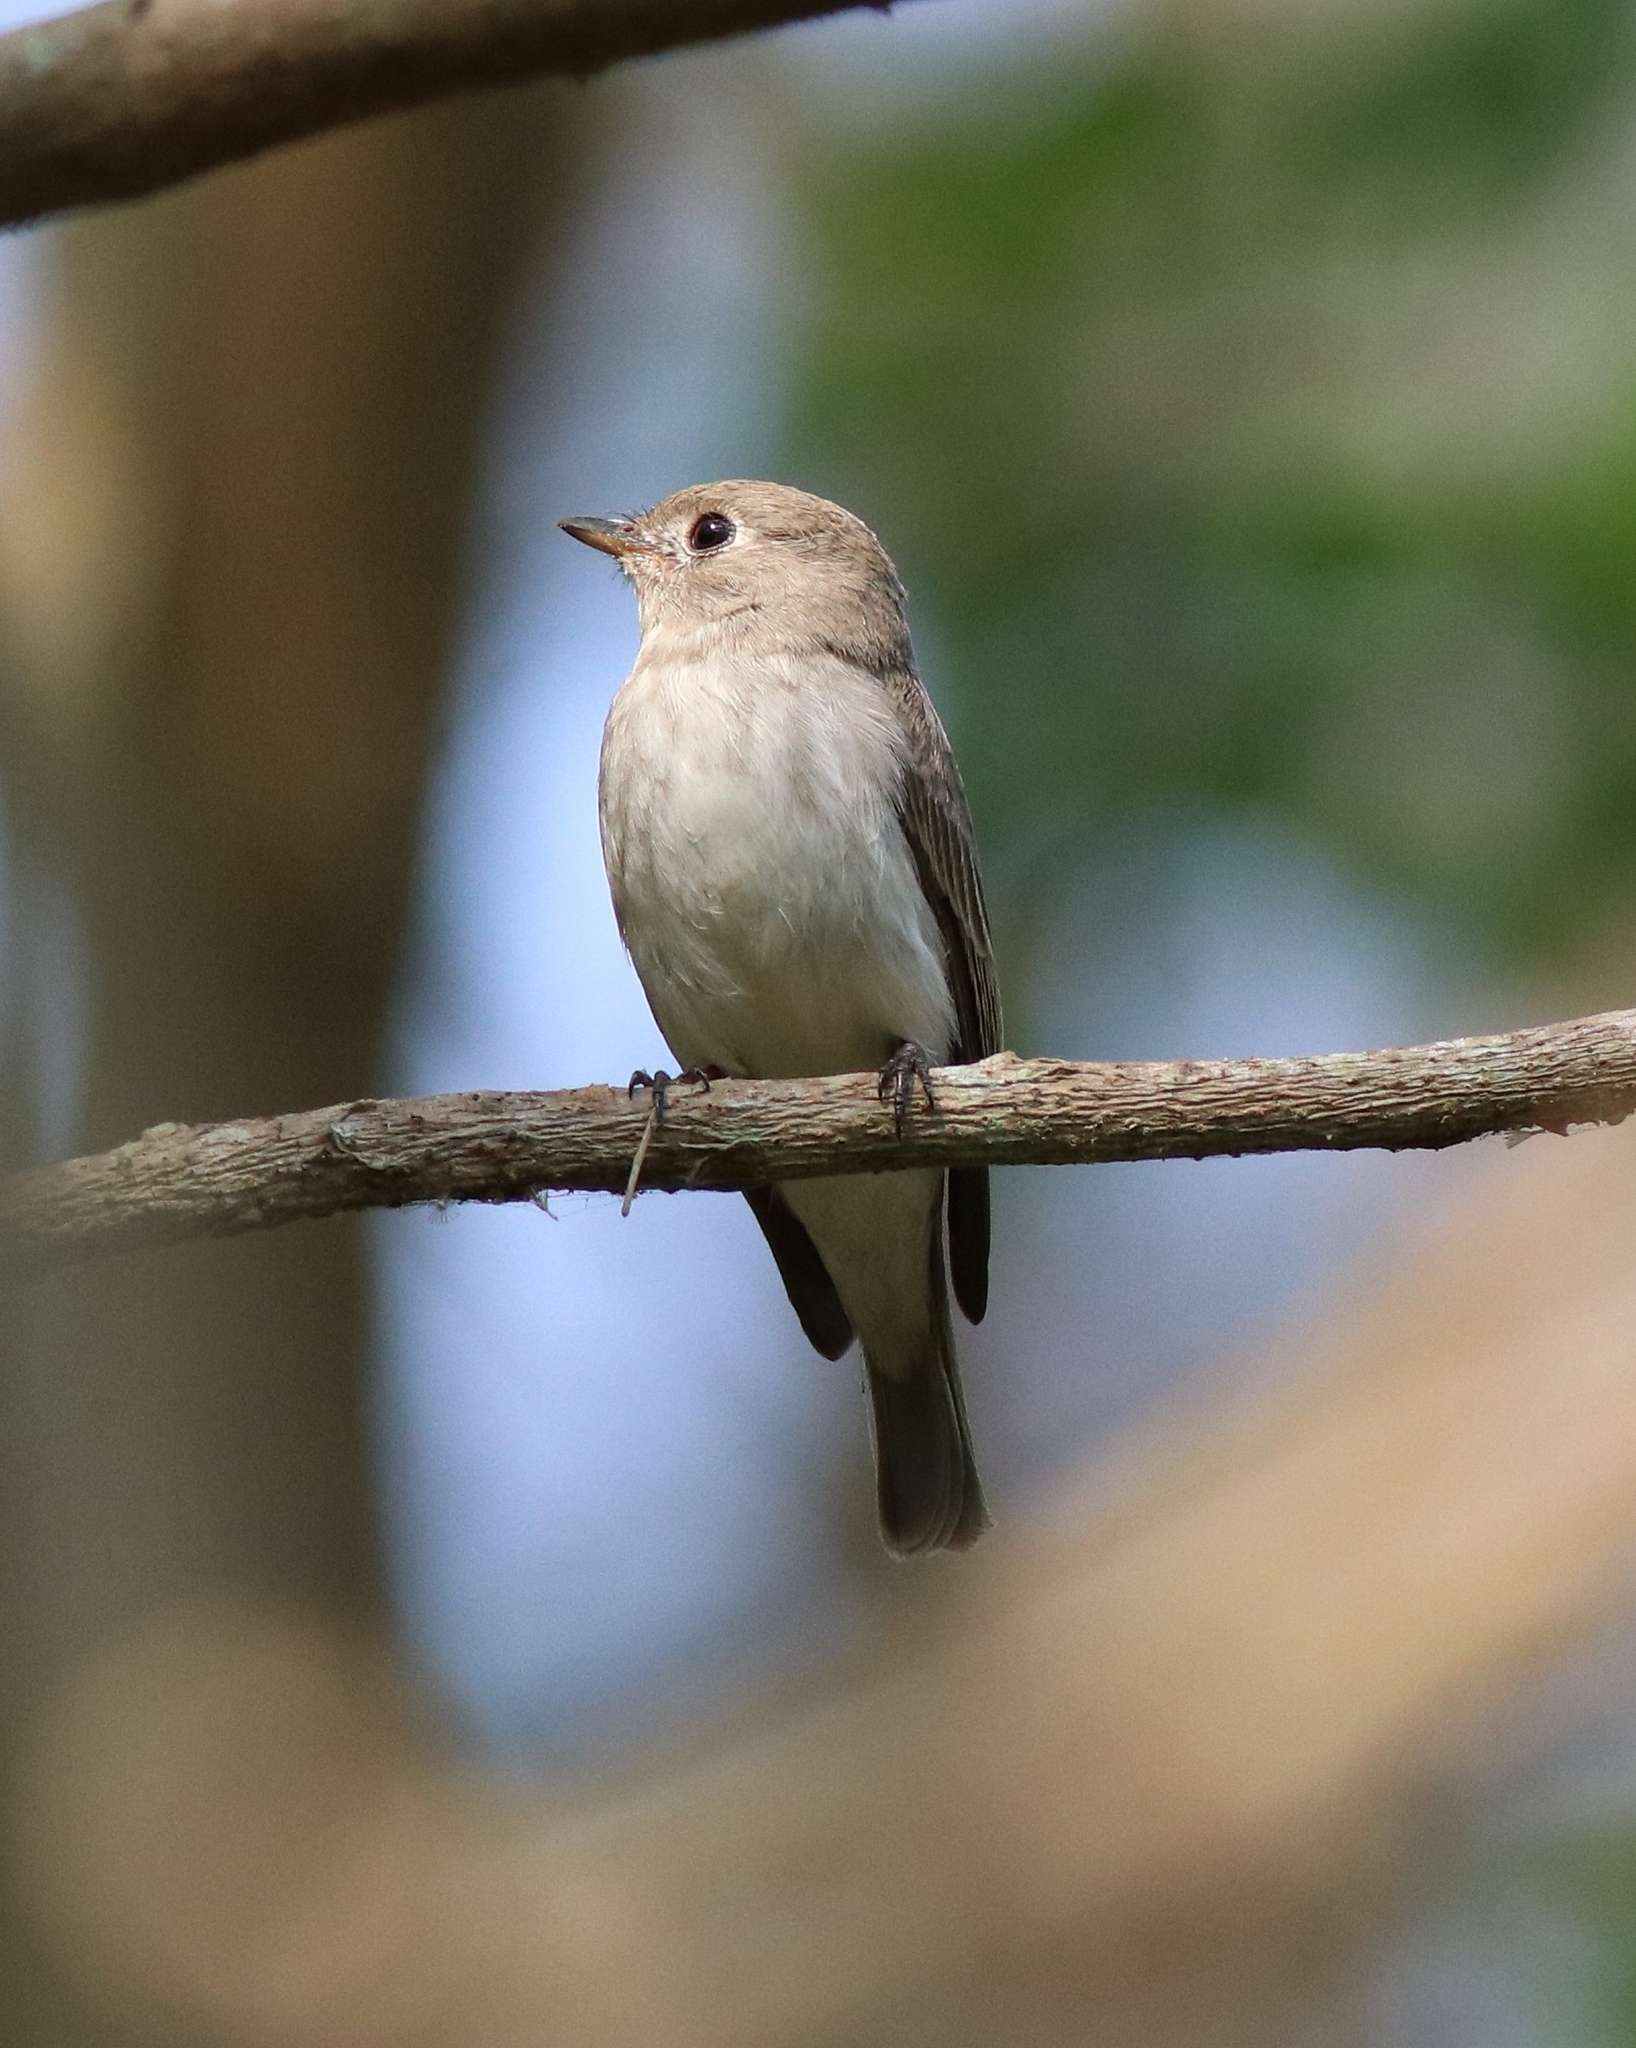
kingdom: Animalia
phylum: Chordata
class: Aves
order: Passeriformes
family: Muscicapidae
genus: Muscicapa
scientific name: Muscicapa latirostris
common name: Asian brown flycatcher
